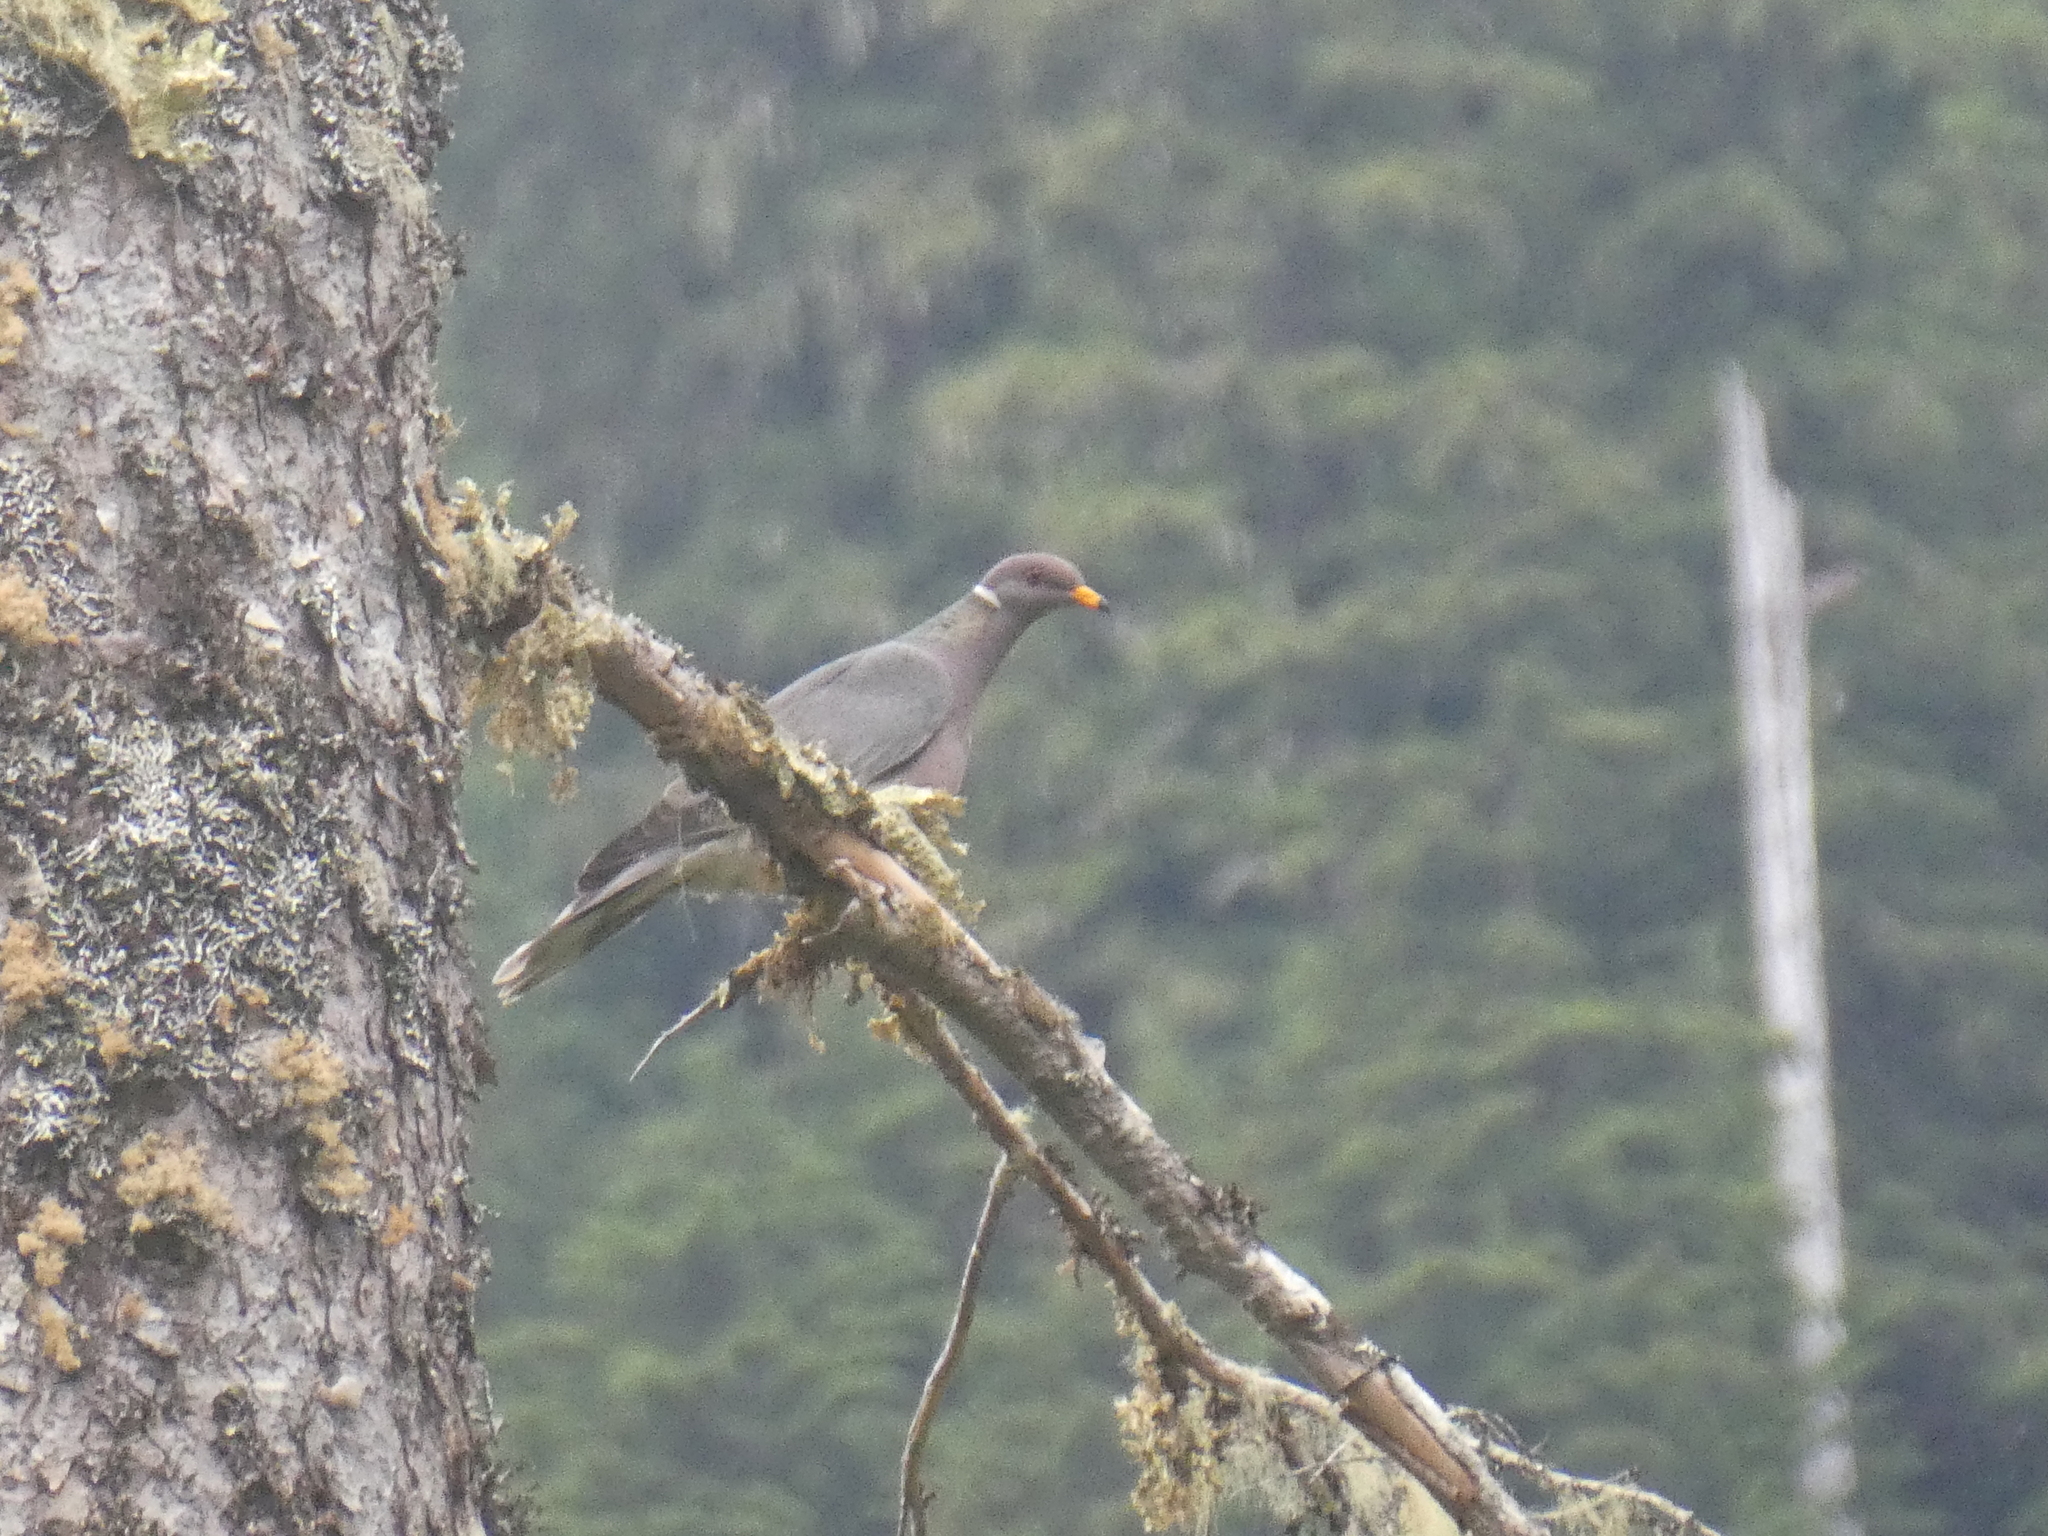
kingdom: Animalia
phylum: Chordata
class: Aves
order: Columbiformes
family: Columbidae
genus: Patagioenas
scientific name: Patagioenas fasciata
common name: Band-tailed pigeon
